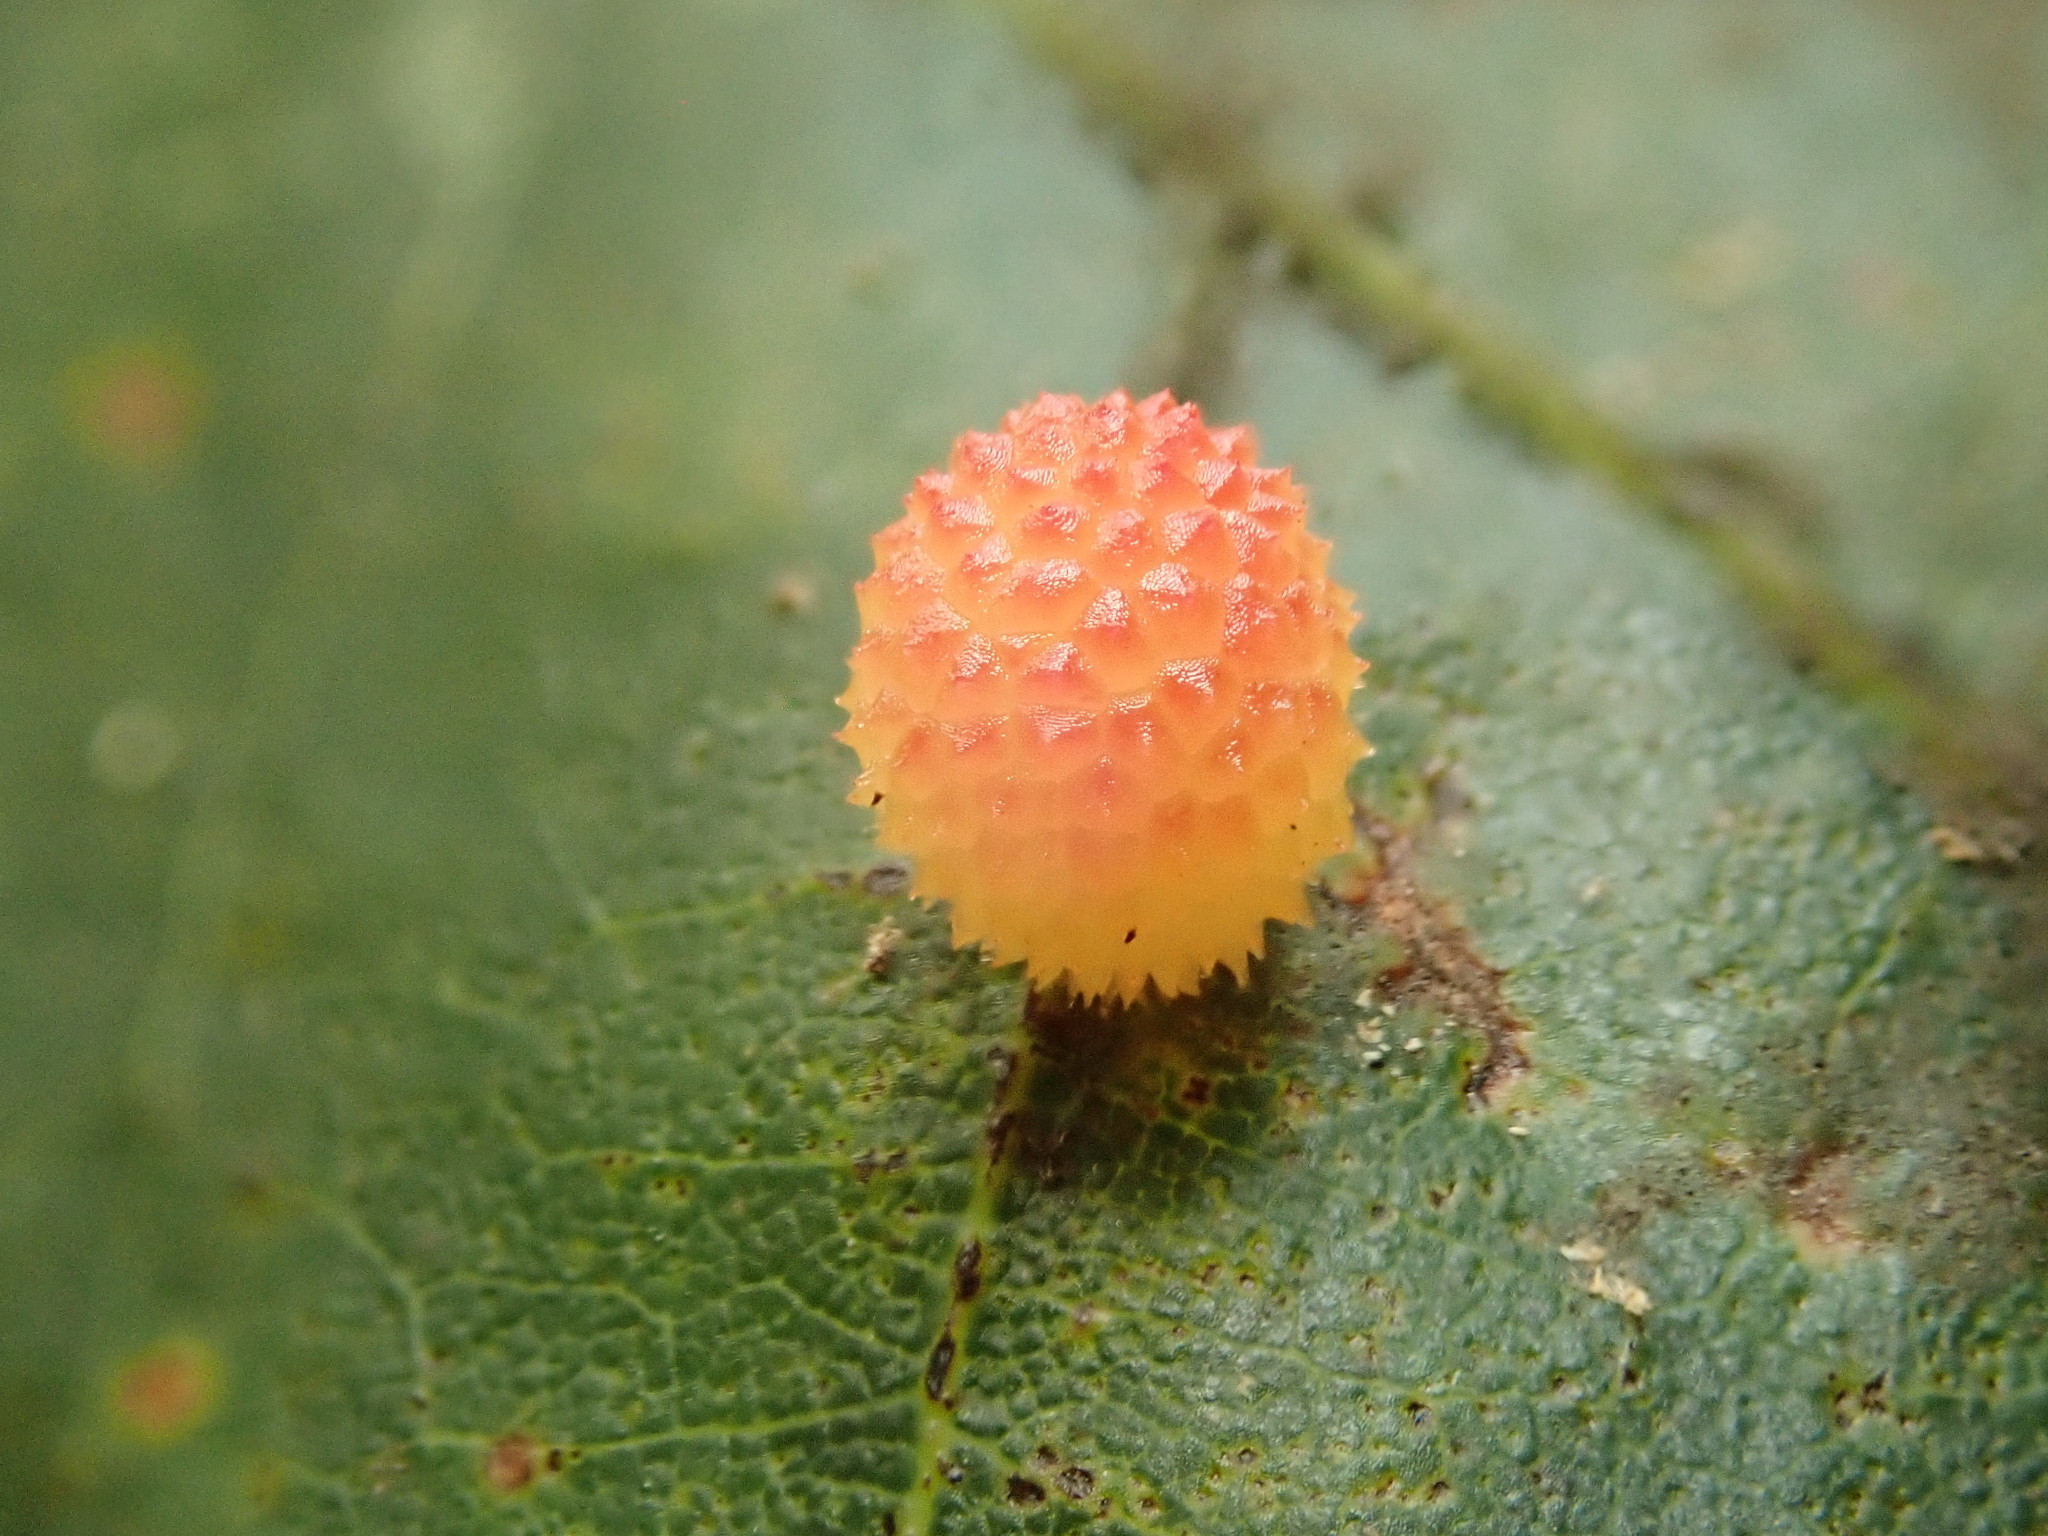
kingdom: Animalia
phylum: Arthropoda
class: Insecta
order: Hymenoptera
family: Cynipidae
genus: Acraspis
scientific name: Acraspis
